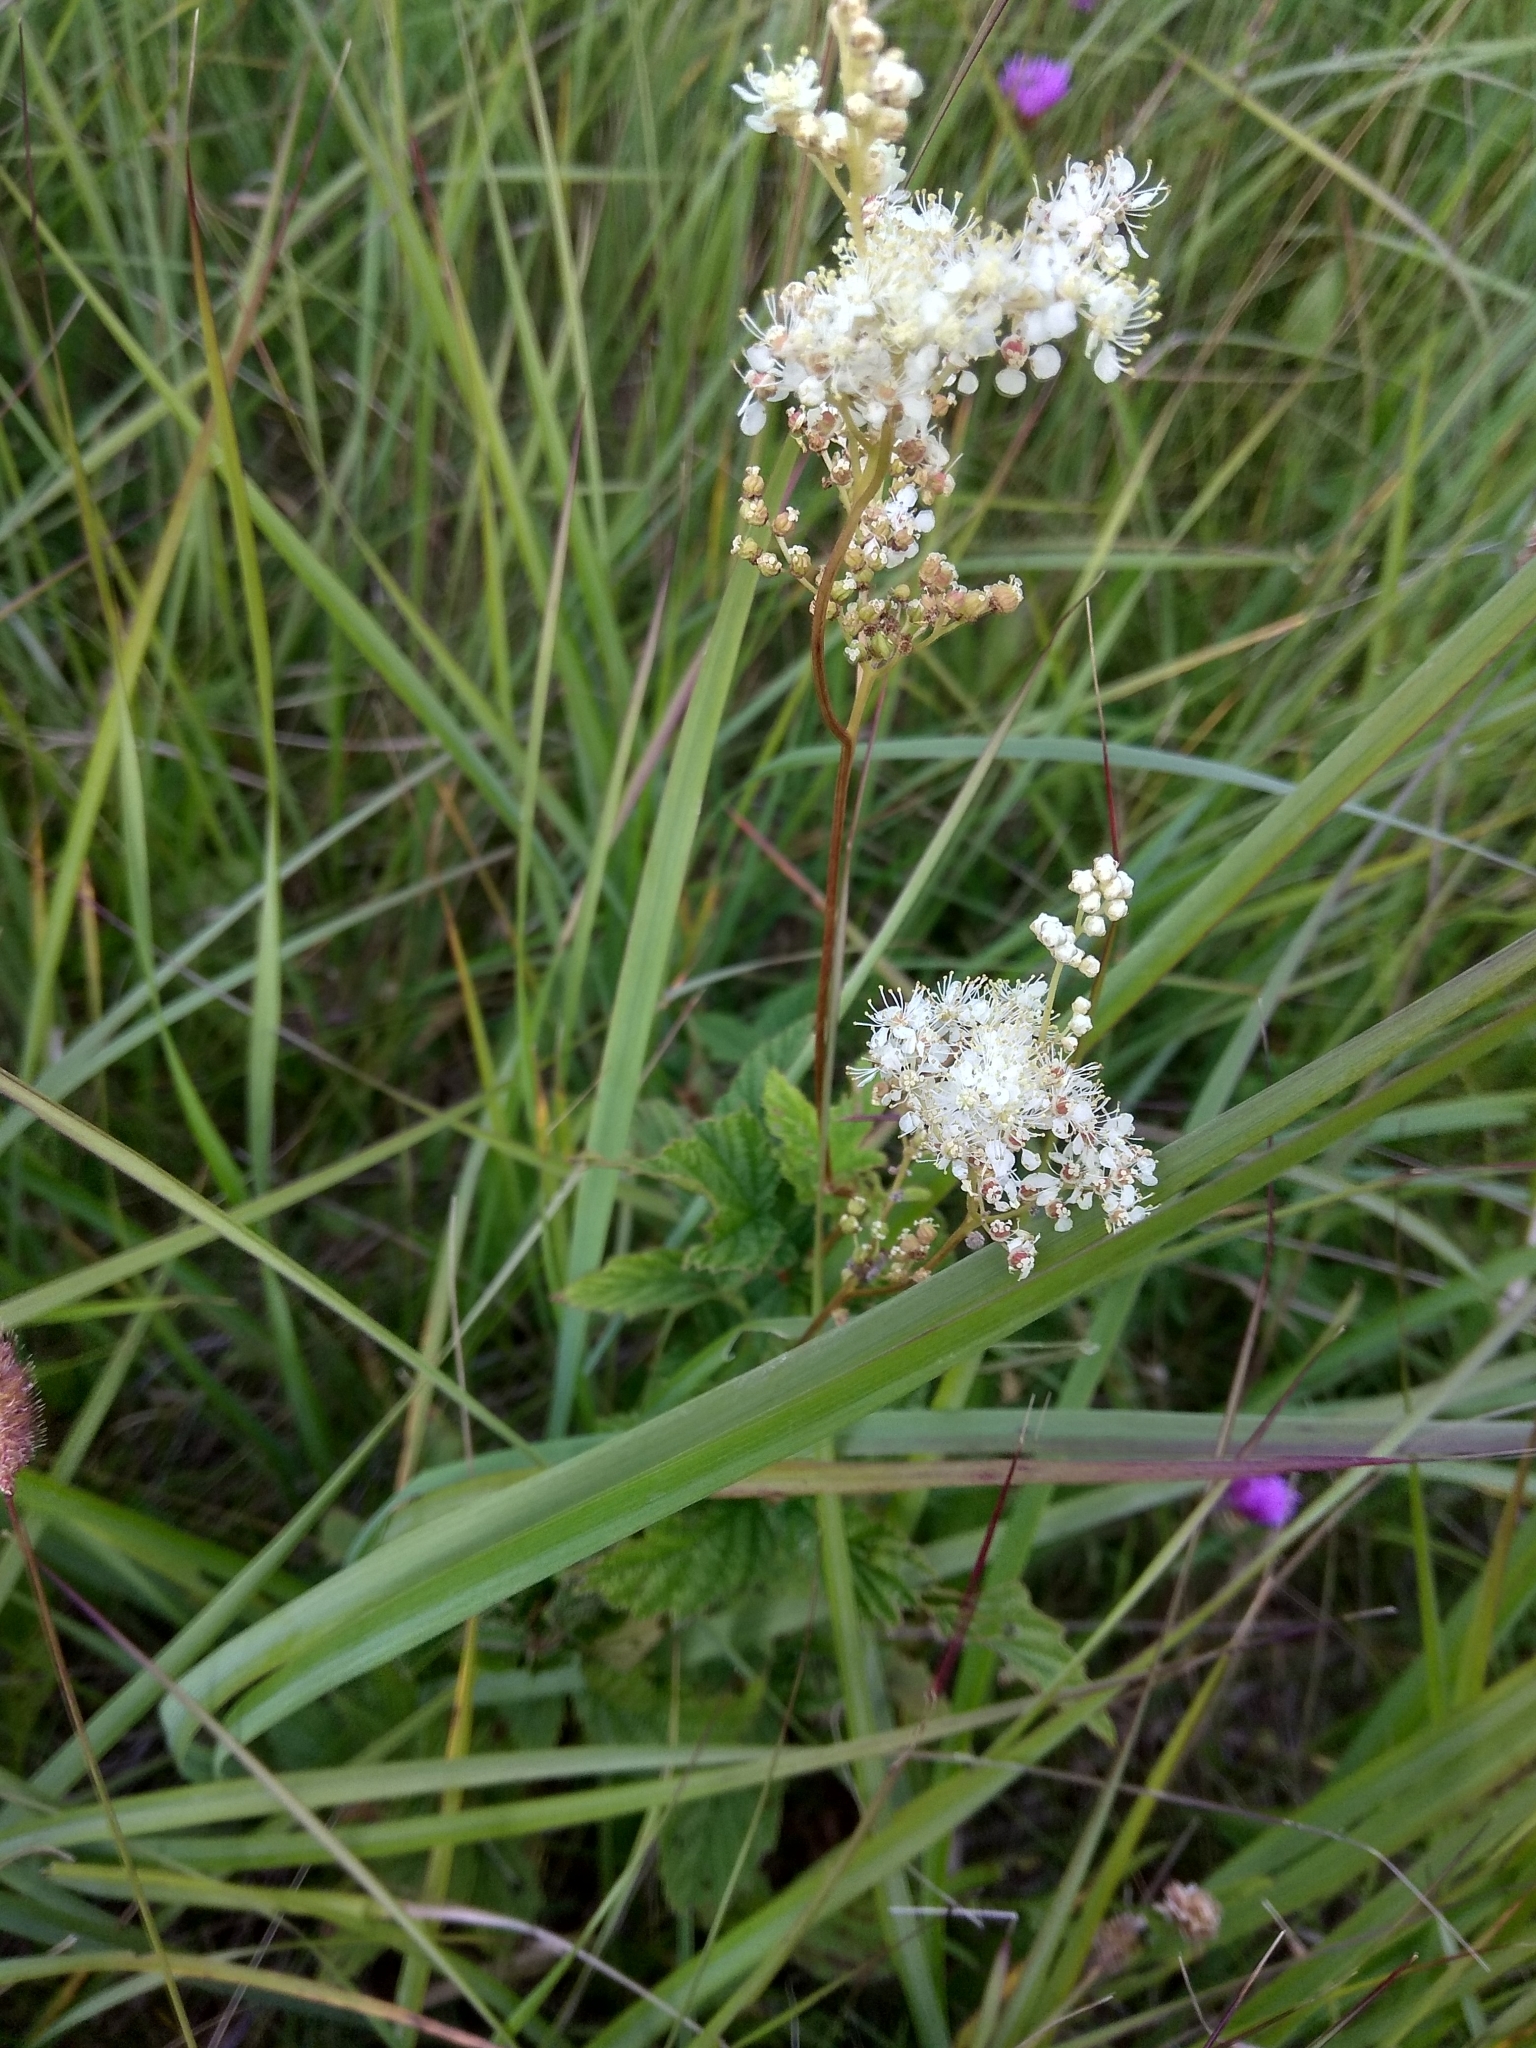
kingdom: Plantae
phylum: Tracheophyta
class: Magnoliopsida
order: Rosales
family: Rosaceae
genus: Filipendula
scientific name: Filipendula ulmaria
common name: Meadowsweet
